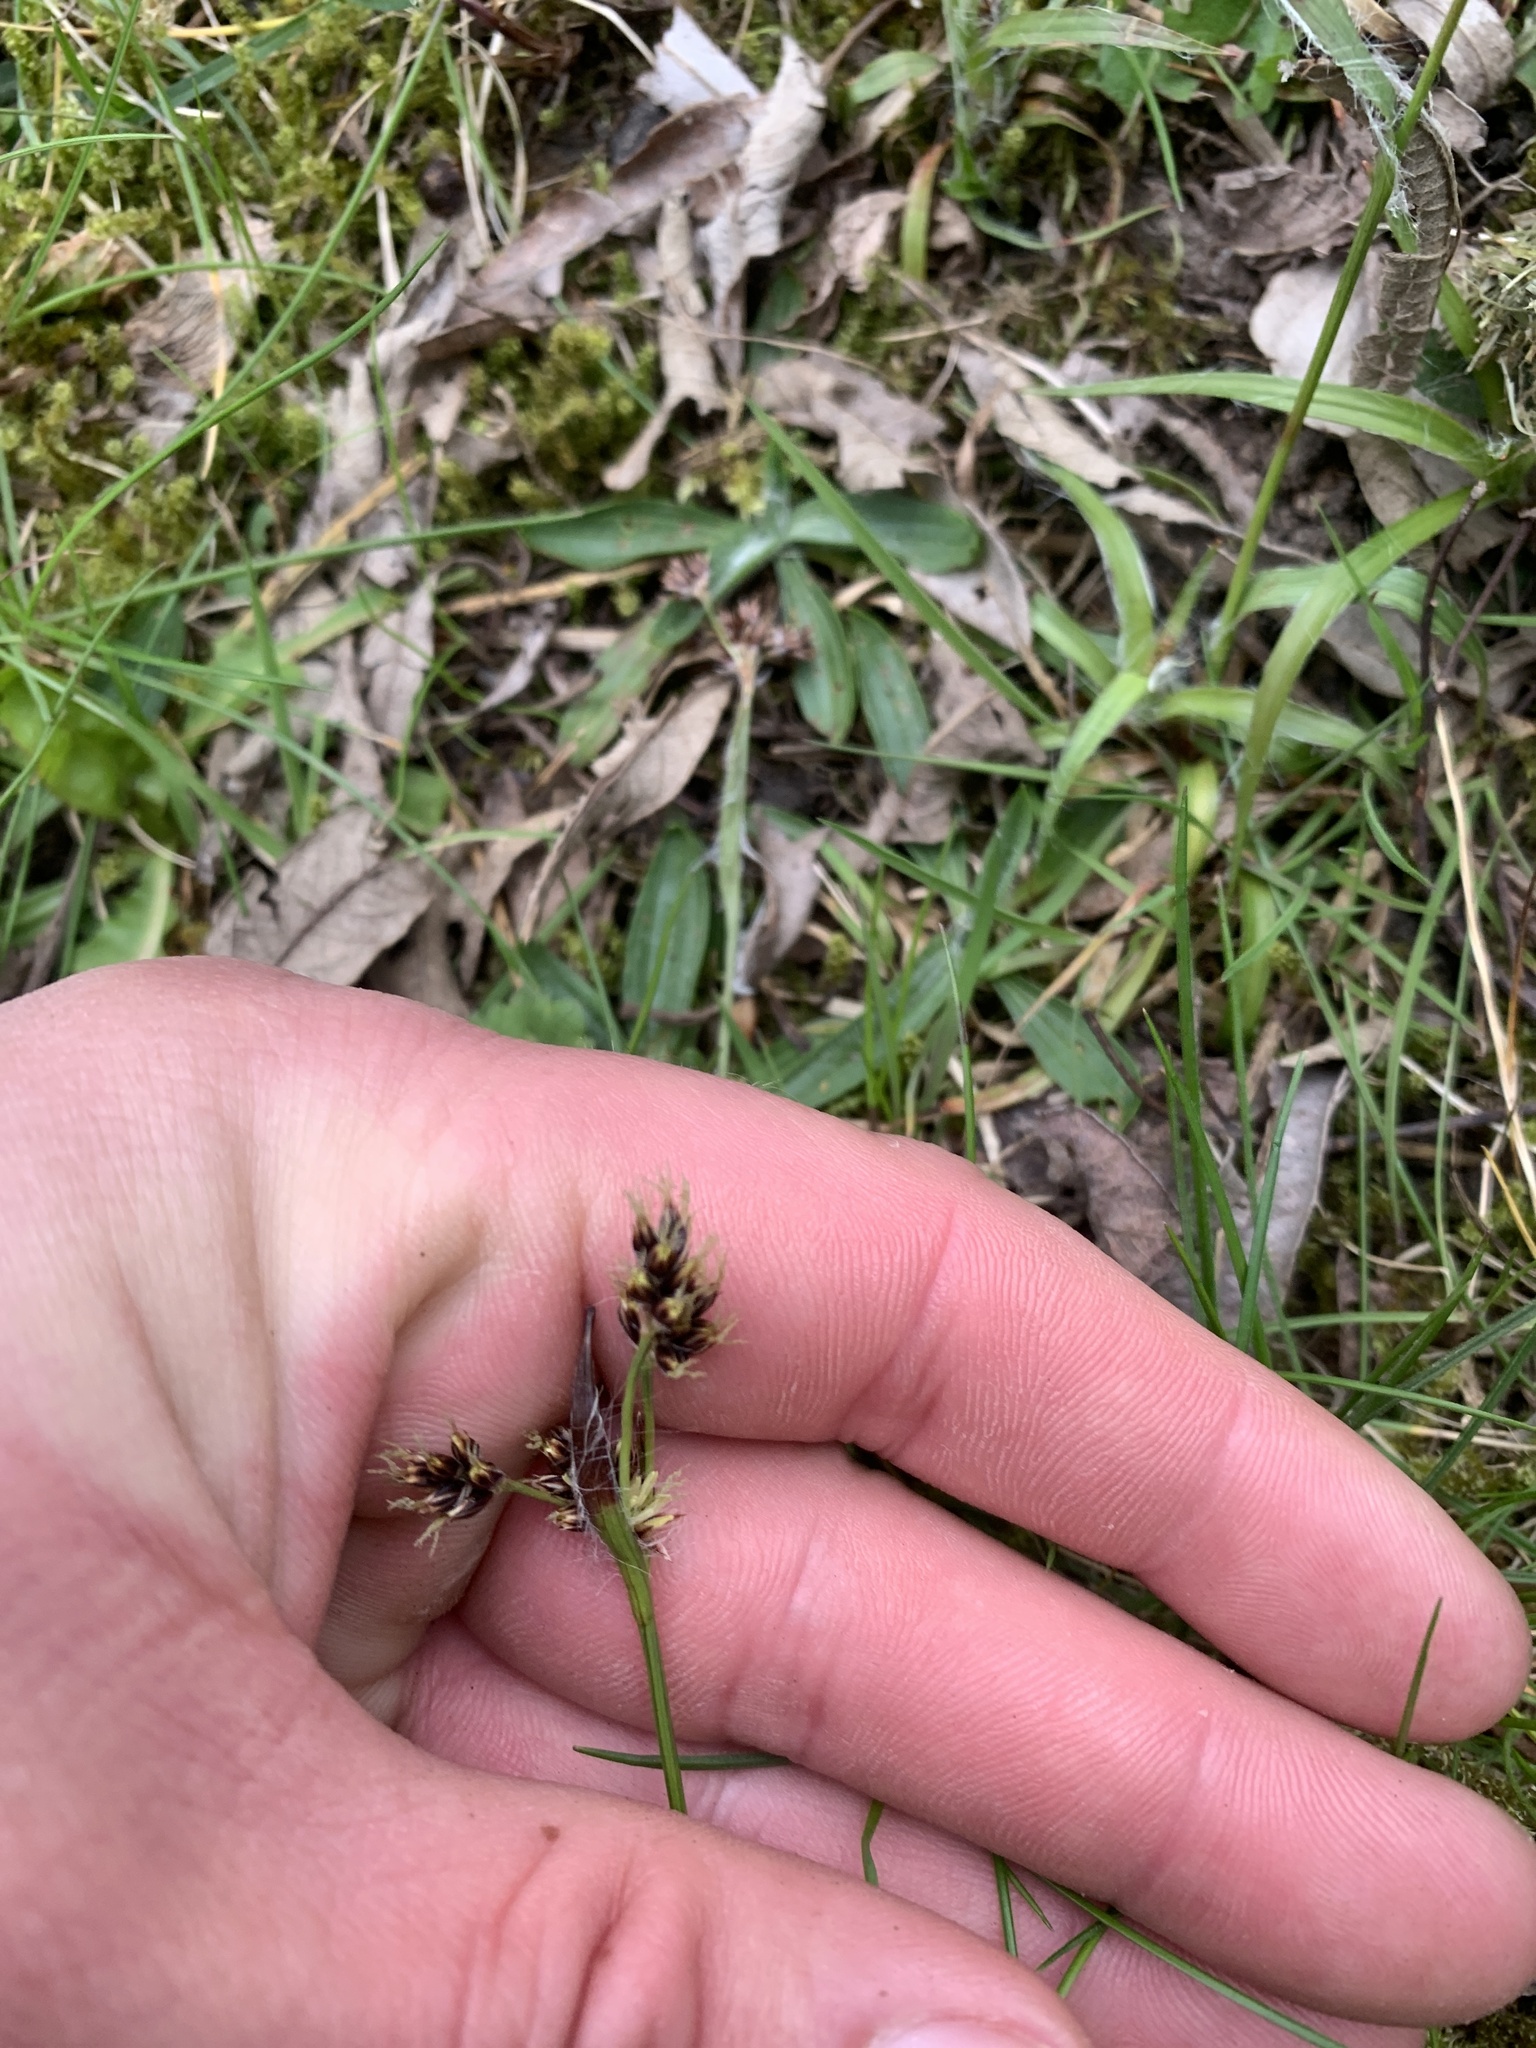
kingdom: Plantae
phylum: Tracheophyta
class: Liliopsida
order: Poales
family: Juncaceae
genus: Luzula
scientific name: Luzula campestris
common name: Field wood-rush
